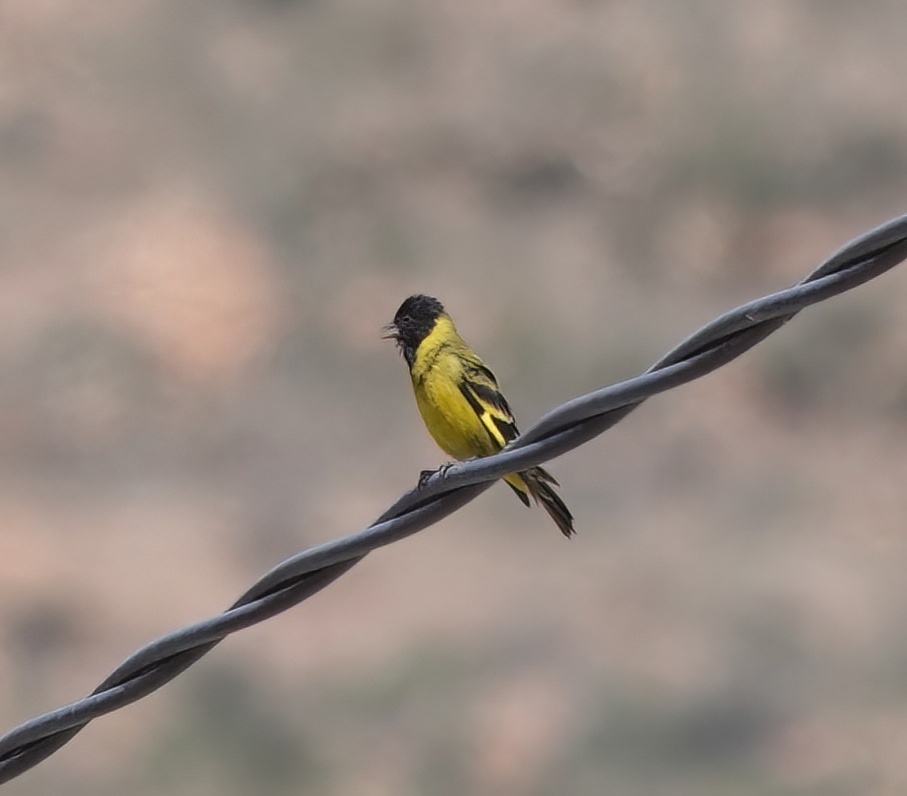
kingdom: Animalia
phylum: Chordata
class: Aves
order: Passeriformes
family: Fringillidae
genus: Spinus
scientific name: Spinus magellanicus
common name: Hooded siskin
